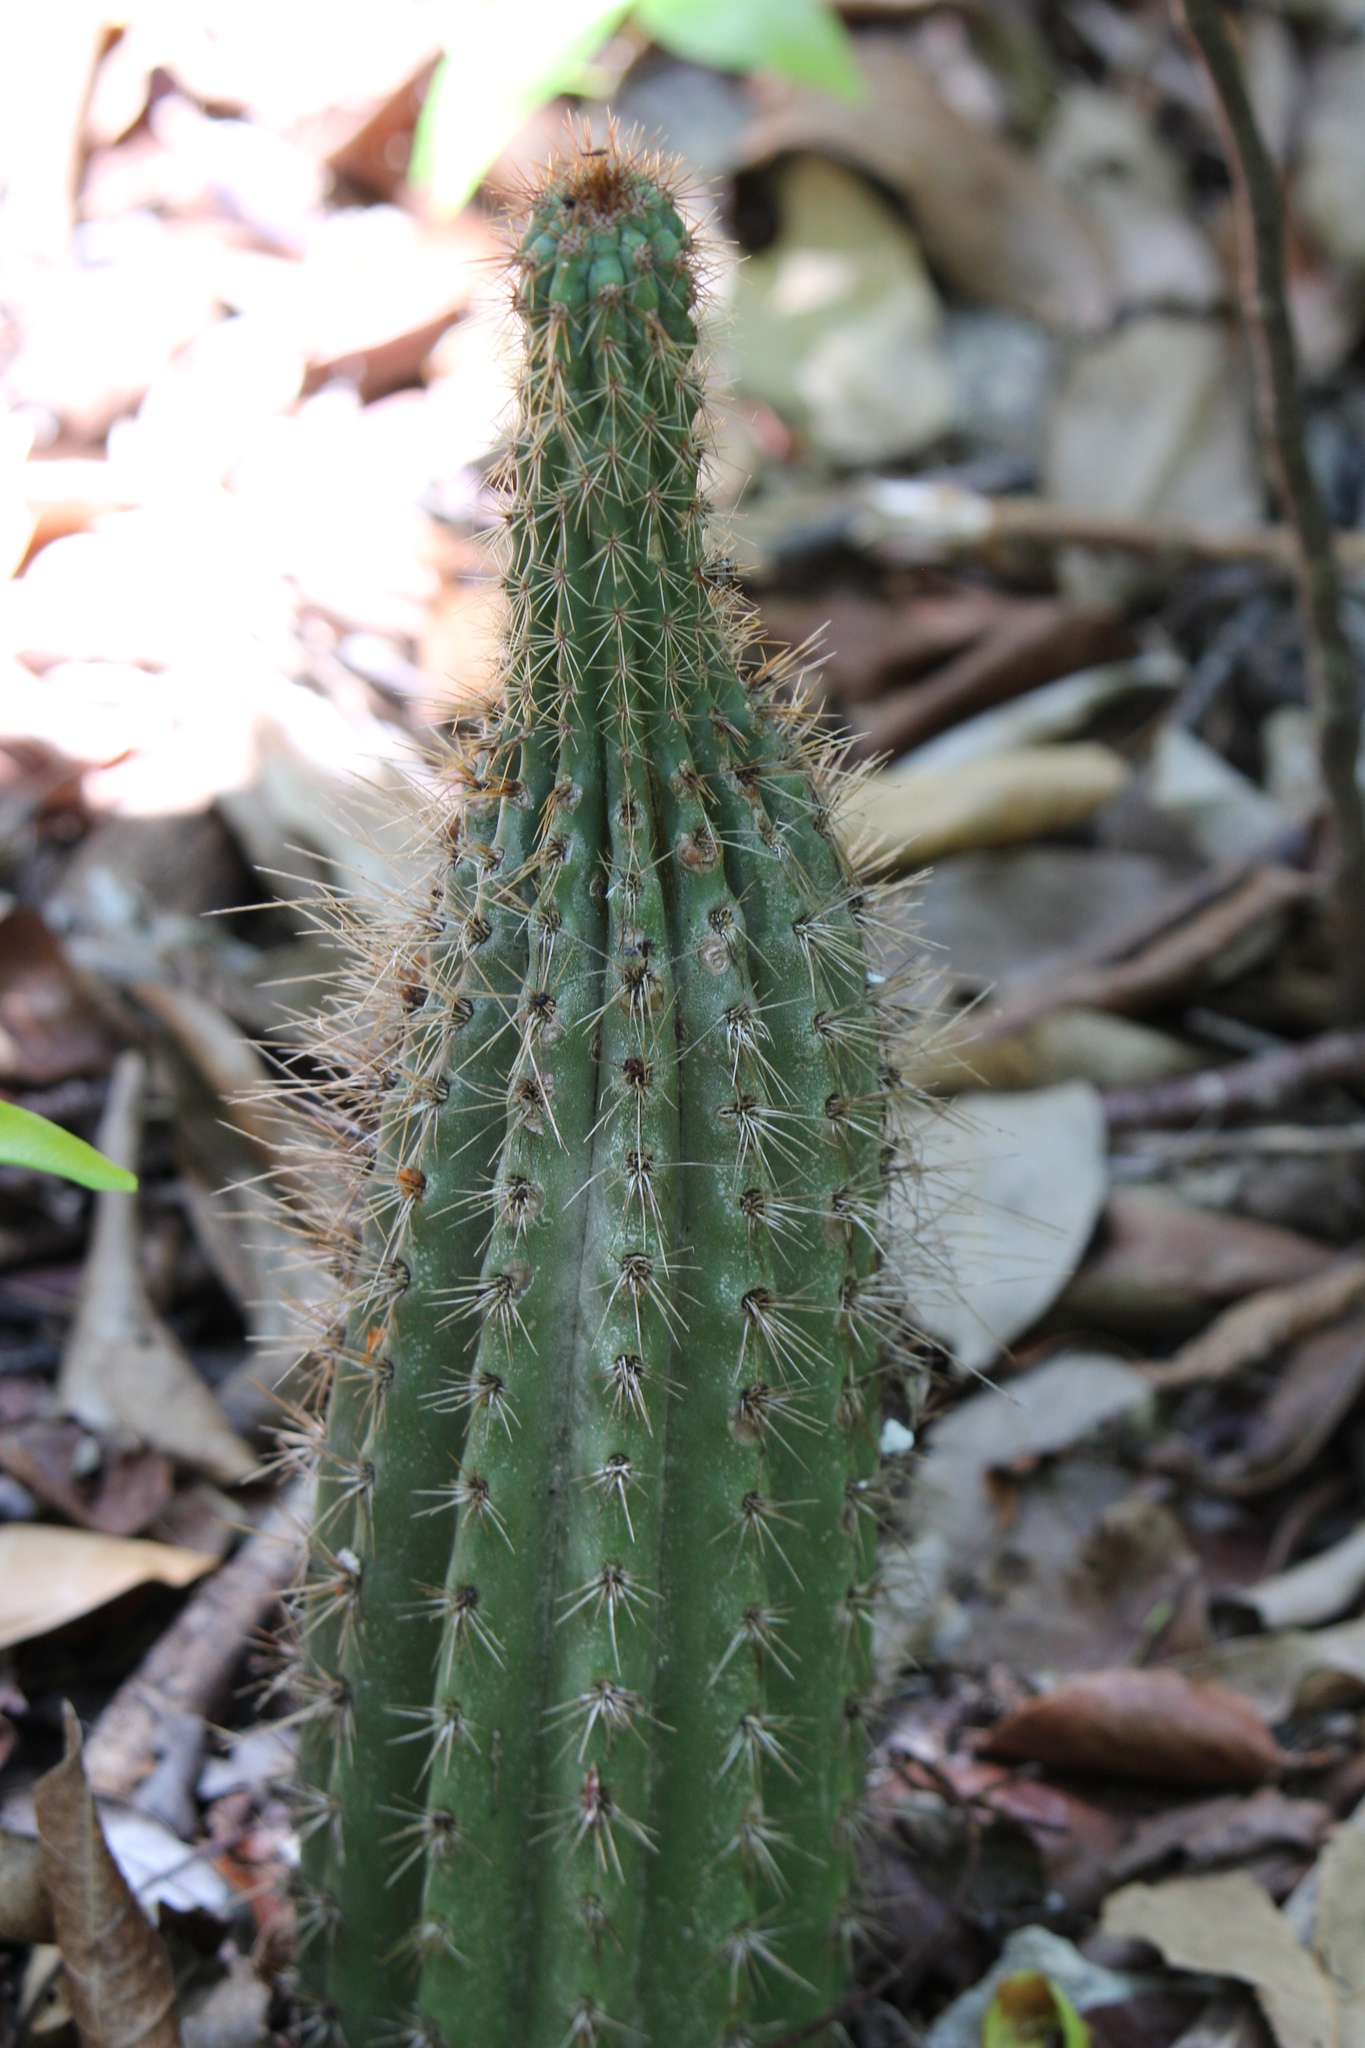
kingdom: Plantae
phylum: Tracheophyta
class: Magnoliopsida
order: Caryophyllales
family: Cactaceae
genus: Pilosocereus
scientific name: Pilosocereus robinii
